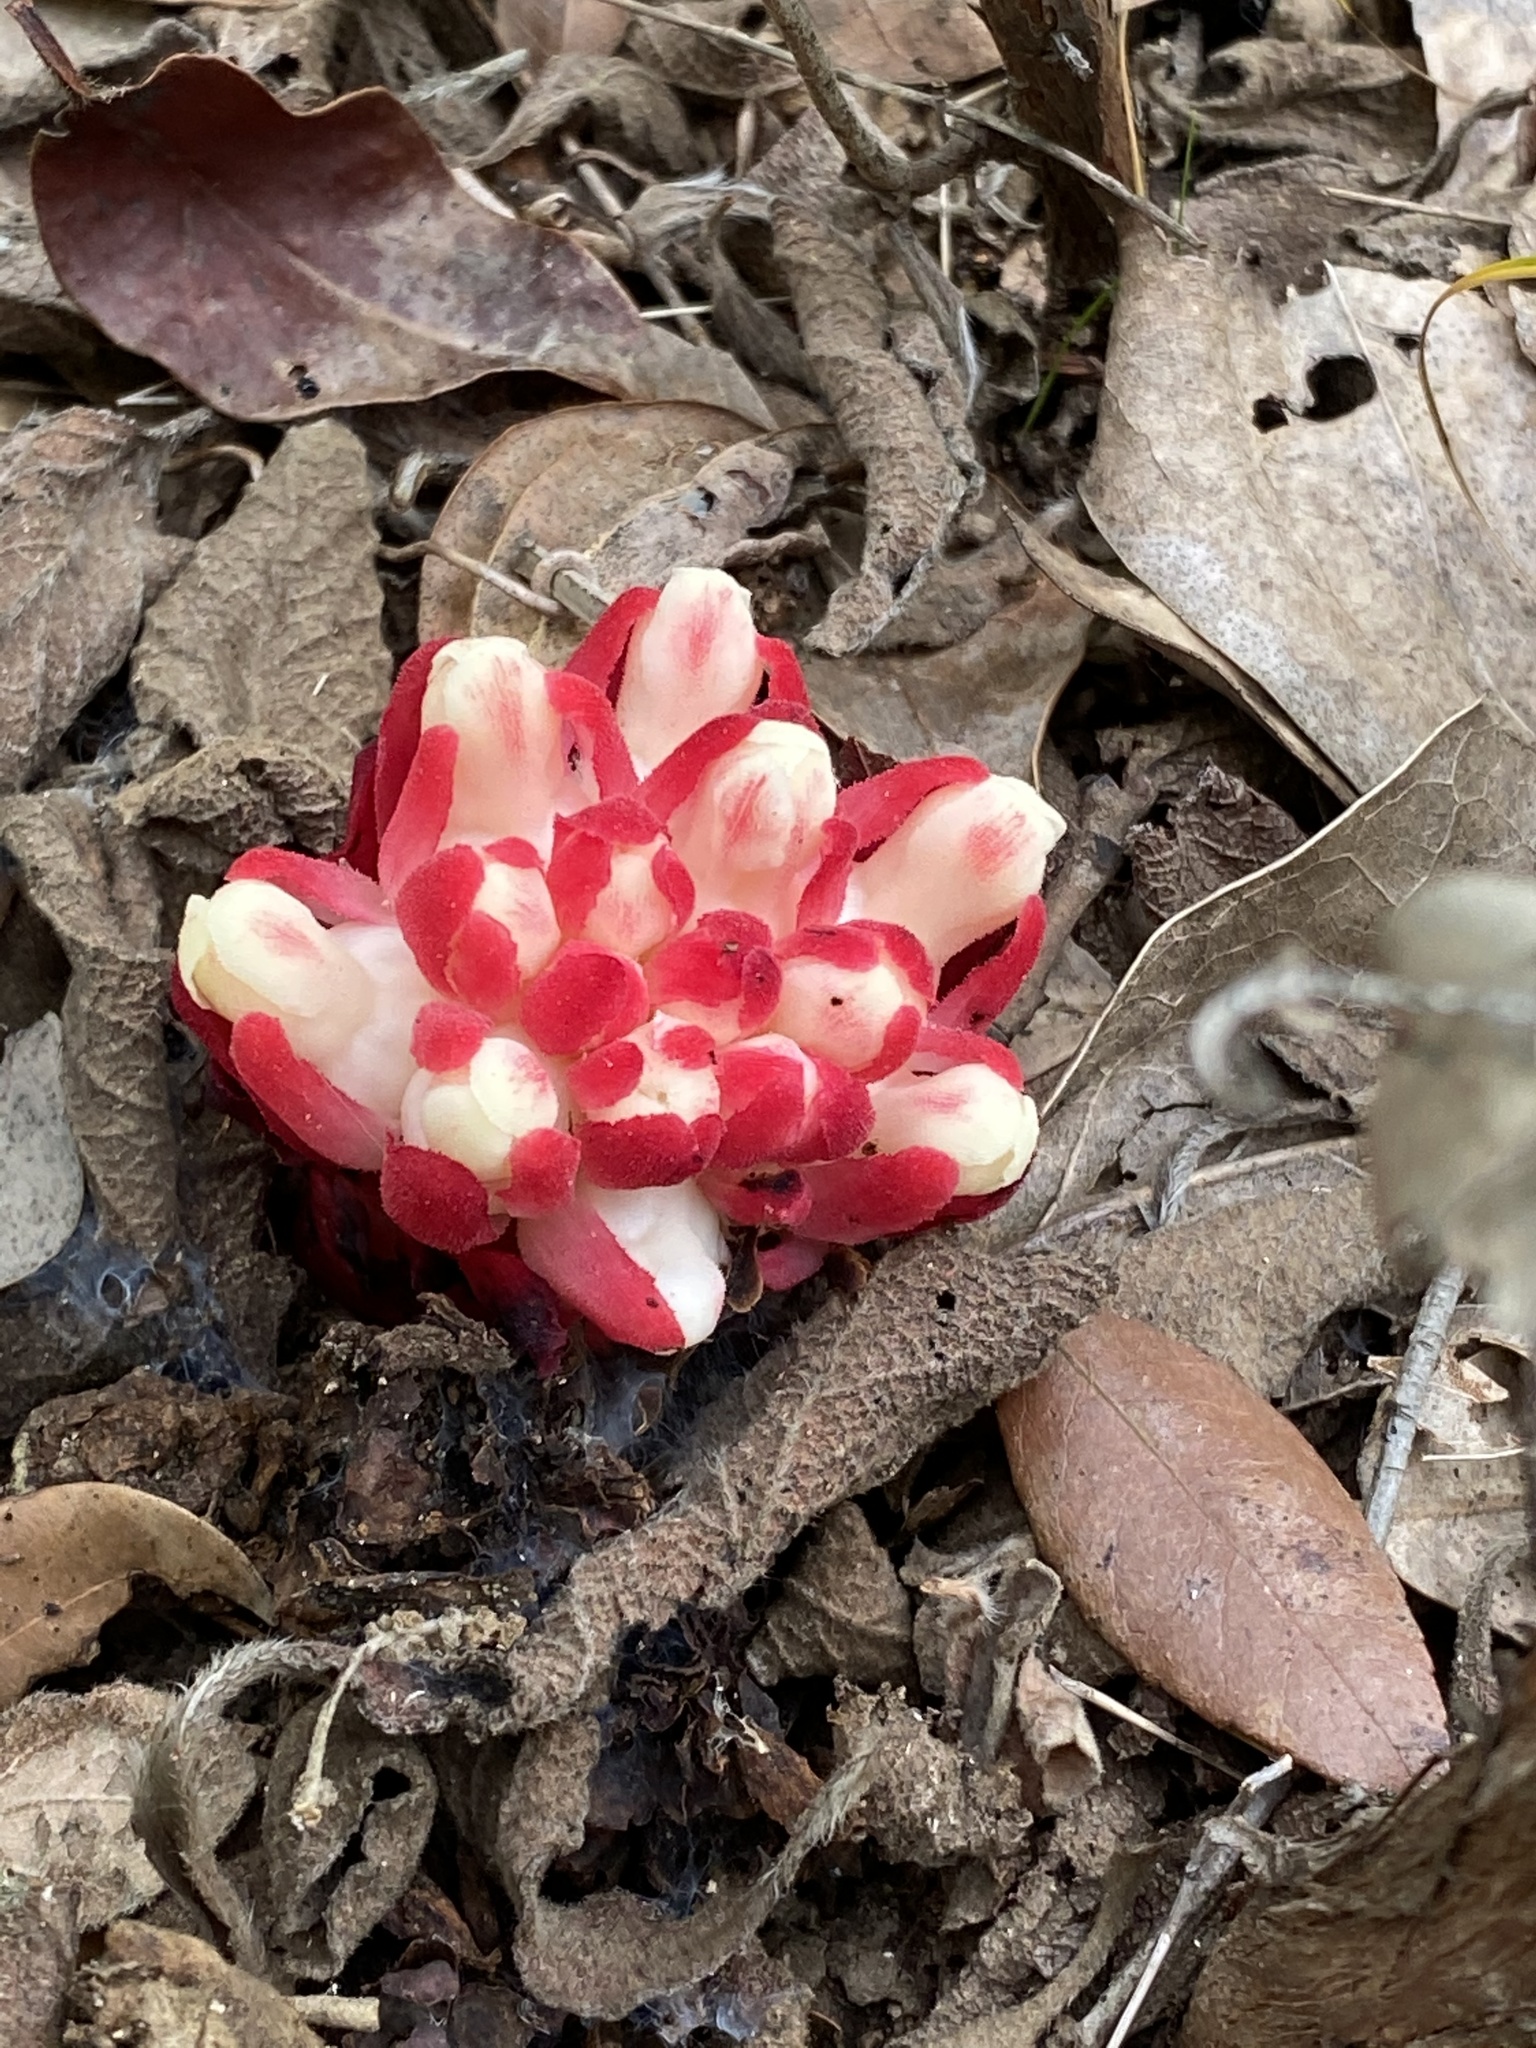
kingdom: Plantae
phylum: Tracheophyta
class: Magnoliopsida
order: Malvales
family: Cytinaceae
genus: Cytinus
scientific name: Cytinus ruber
